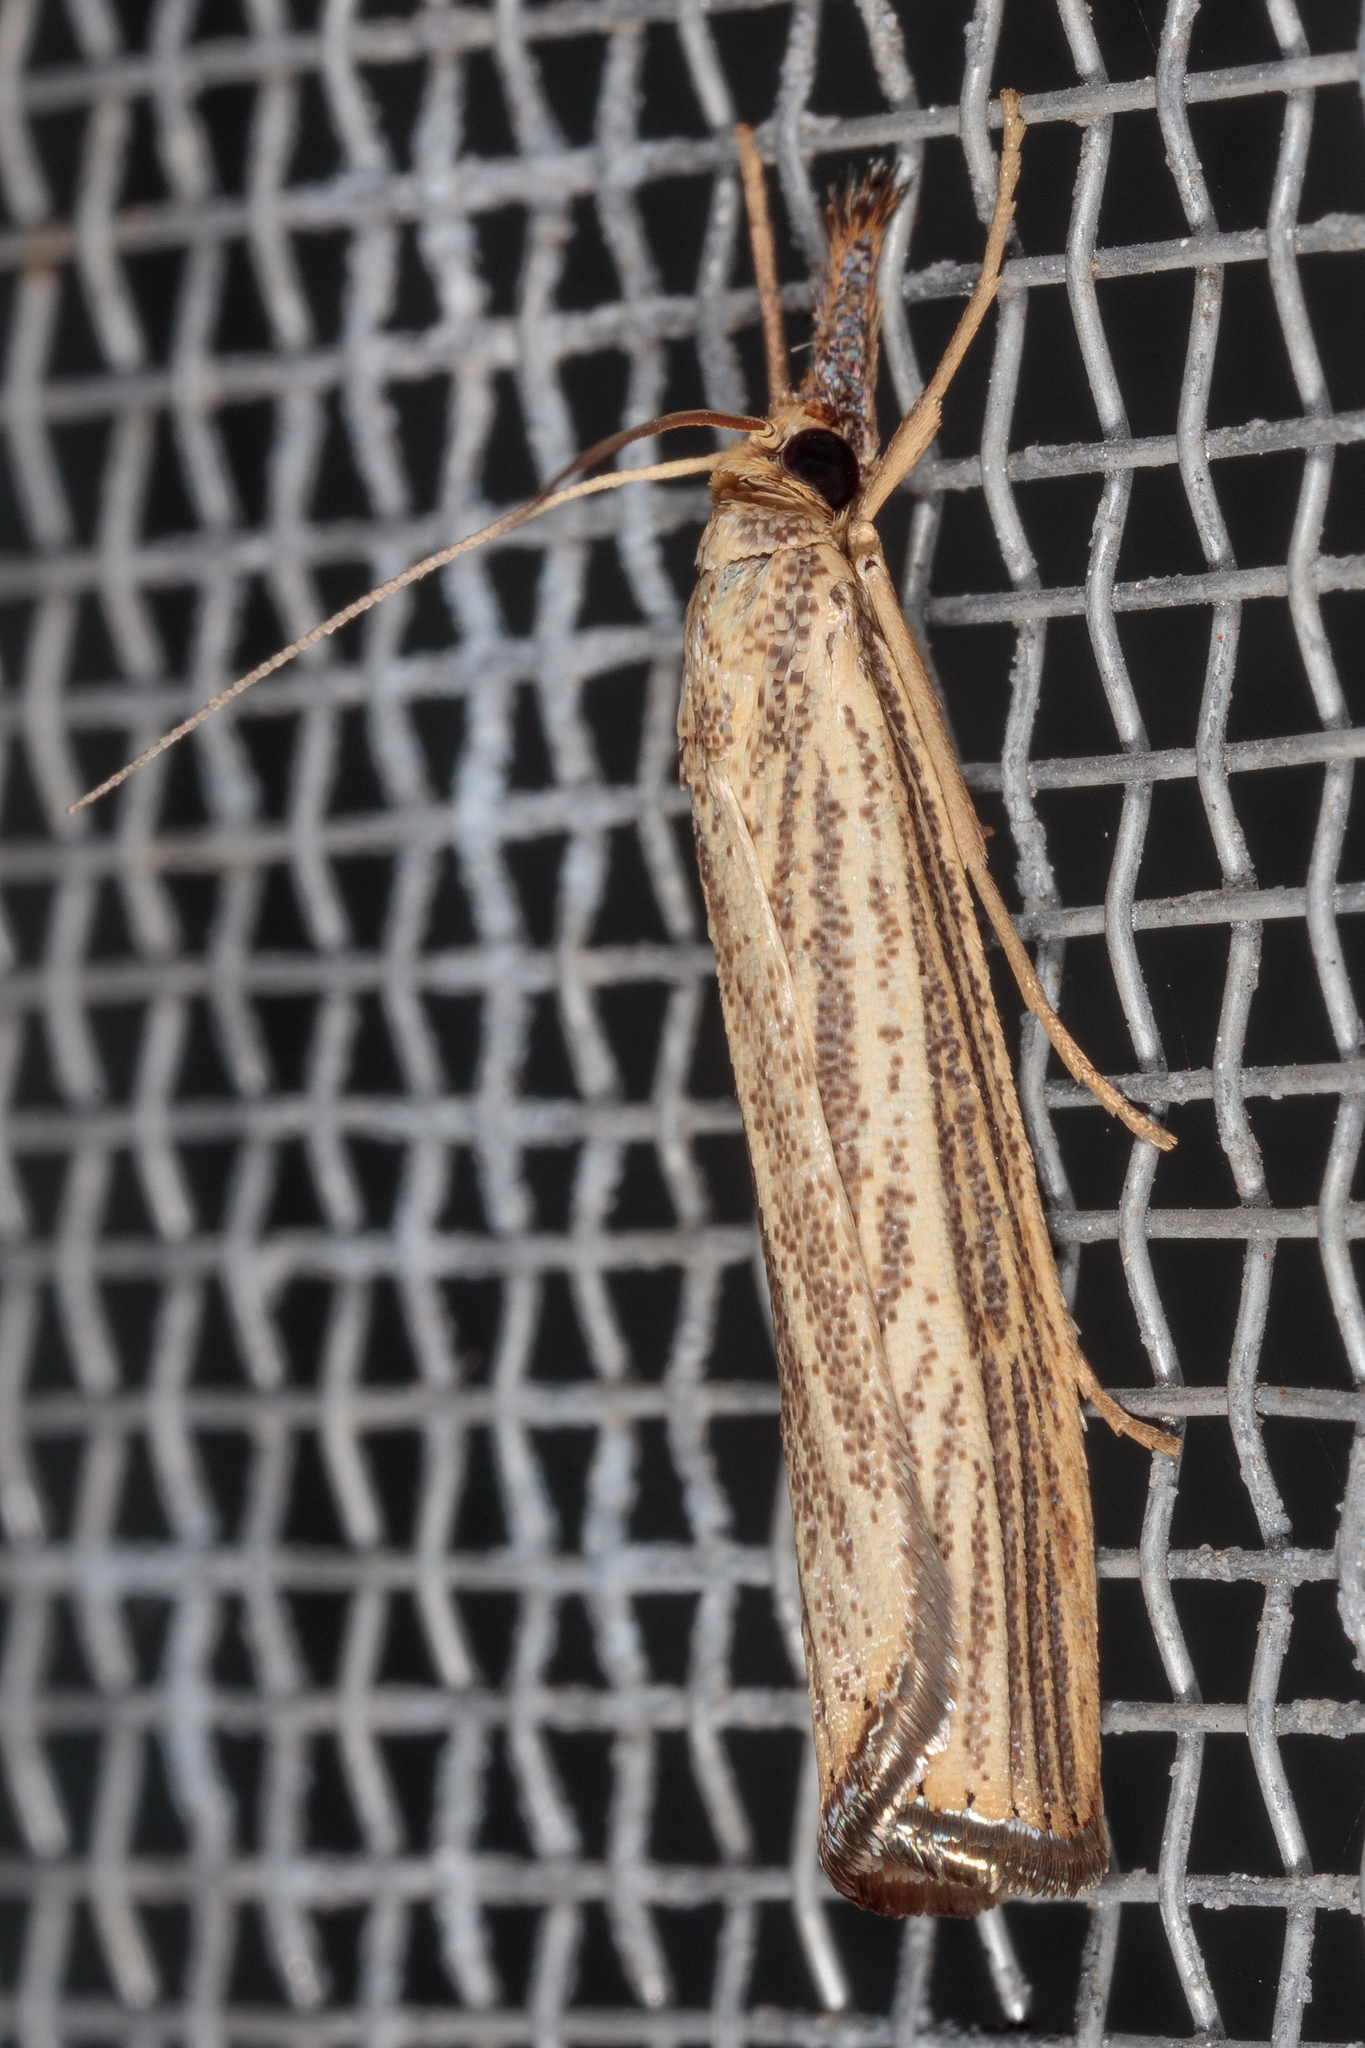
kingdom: Animalia
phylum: Arthropoda
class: Insecta
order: Lepidoptera
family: Crambidae
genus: Agriphila
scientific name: Agriphila vulgivagellus
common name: Vagabond crambus moth
